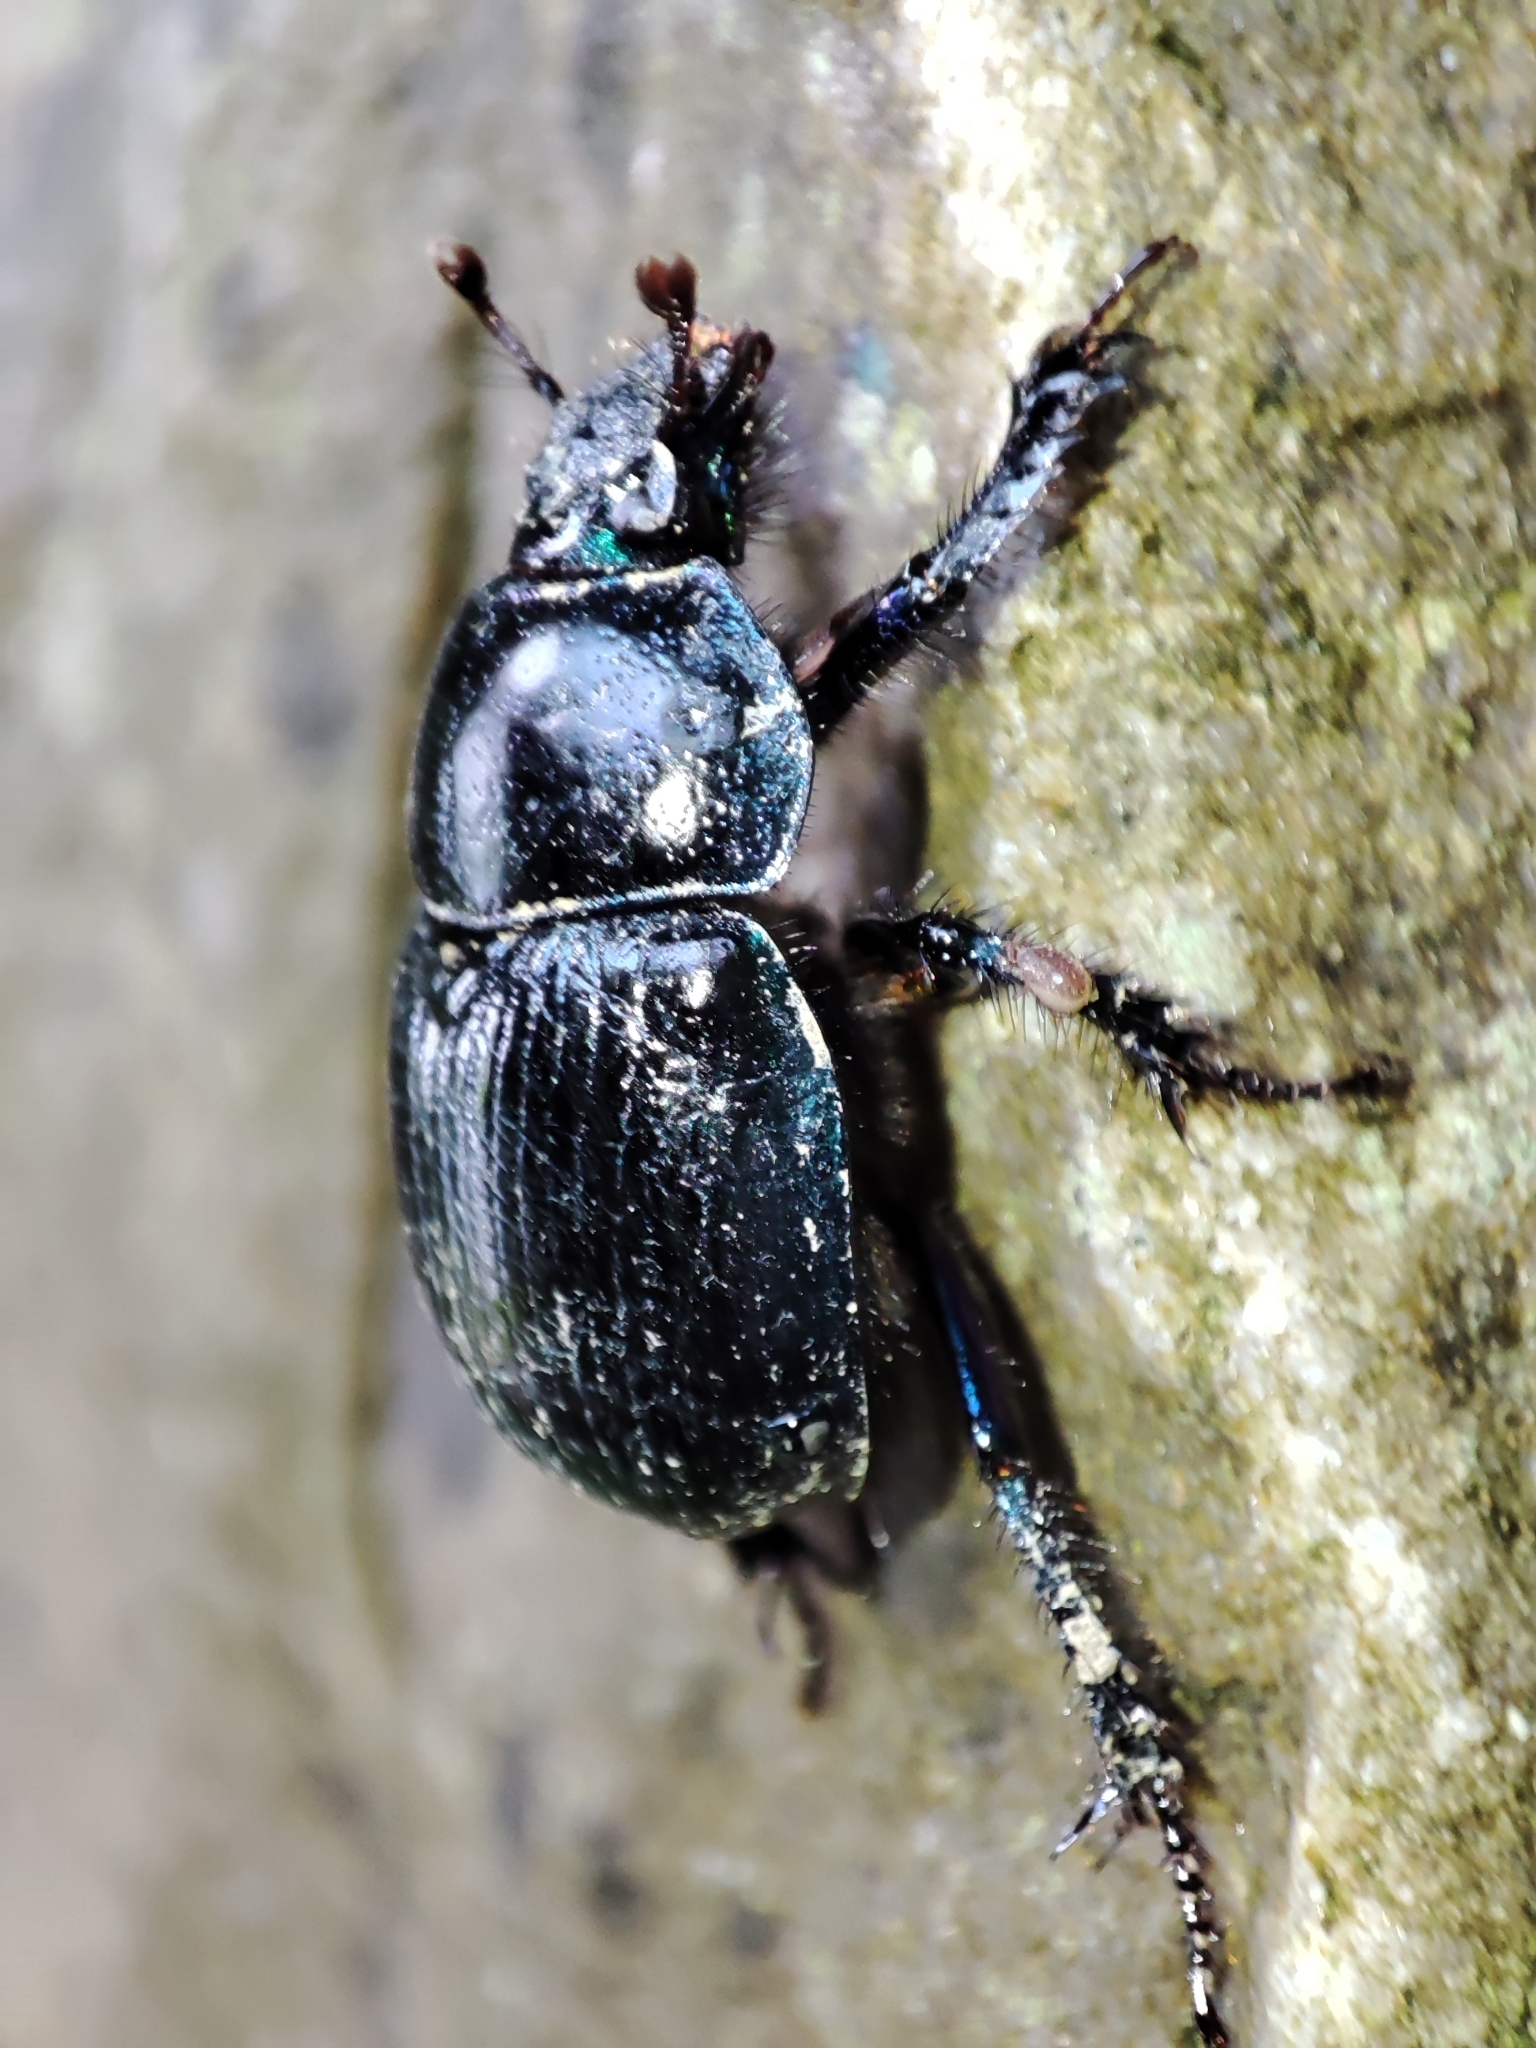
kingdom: Animalia
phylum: Arthropoda
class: Insecta
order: Coleoptera
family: Geotrupidae
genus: Anoplotrupes
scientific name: Anoplotrupes stercorosus
